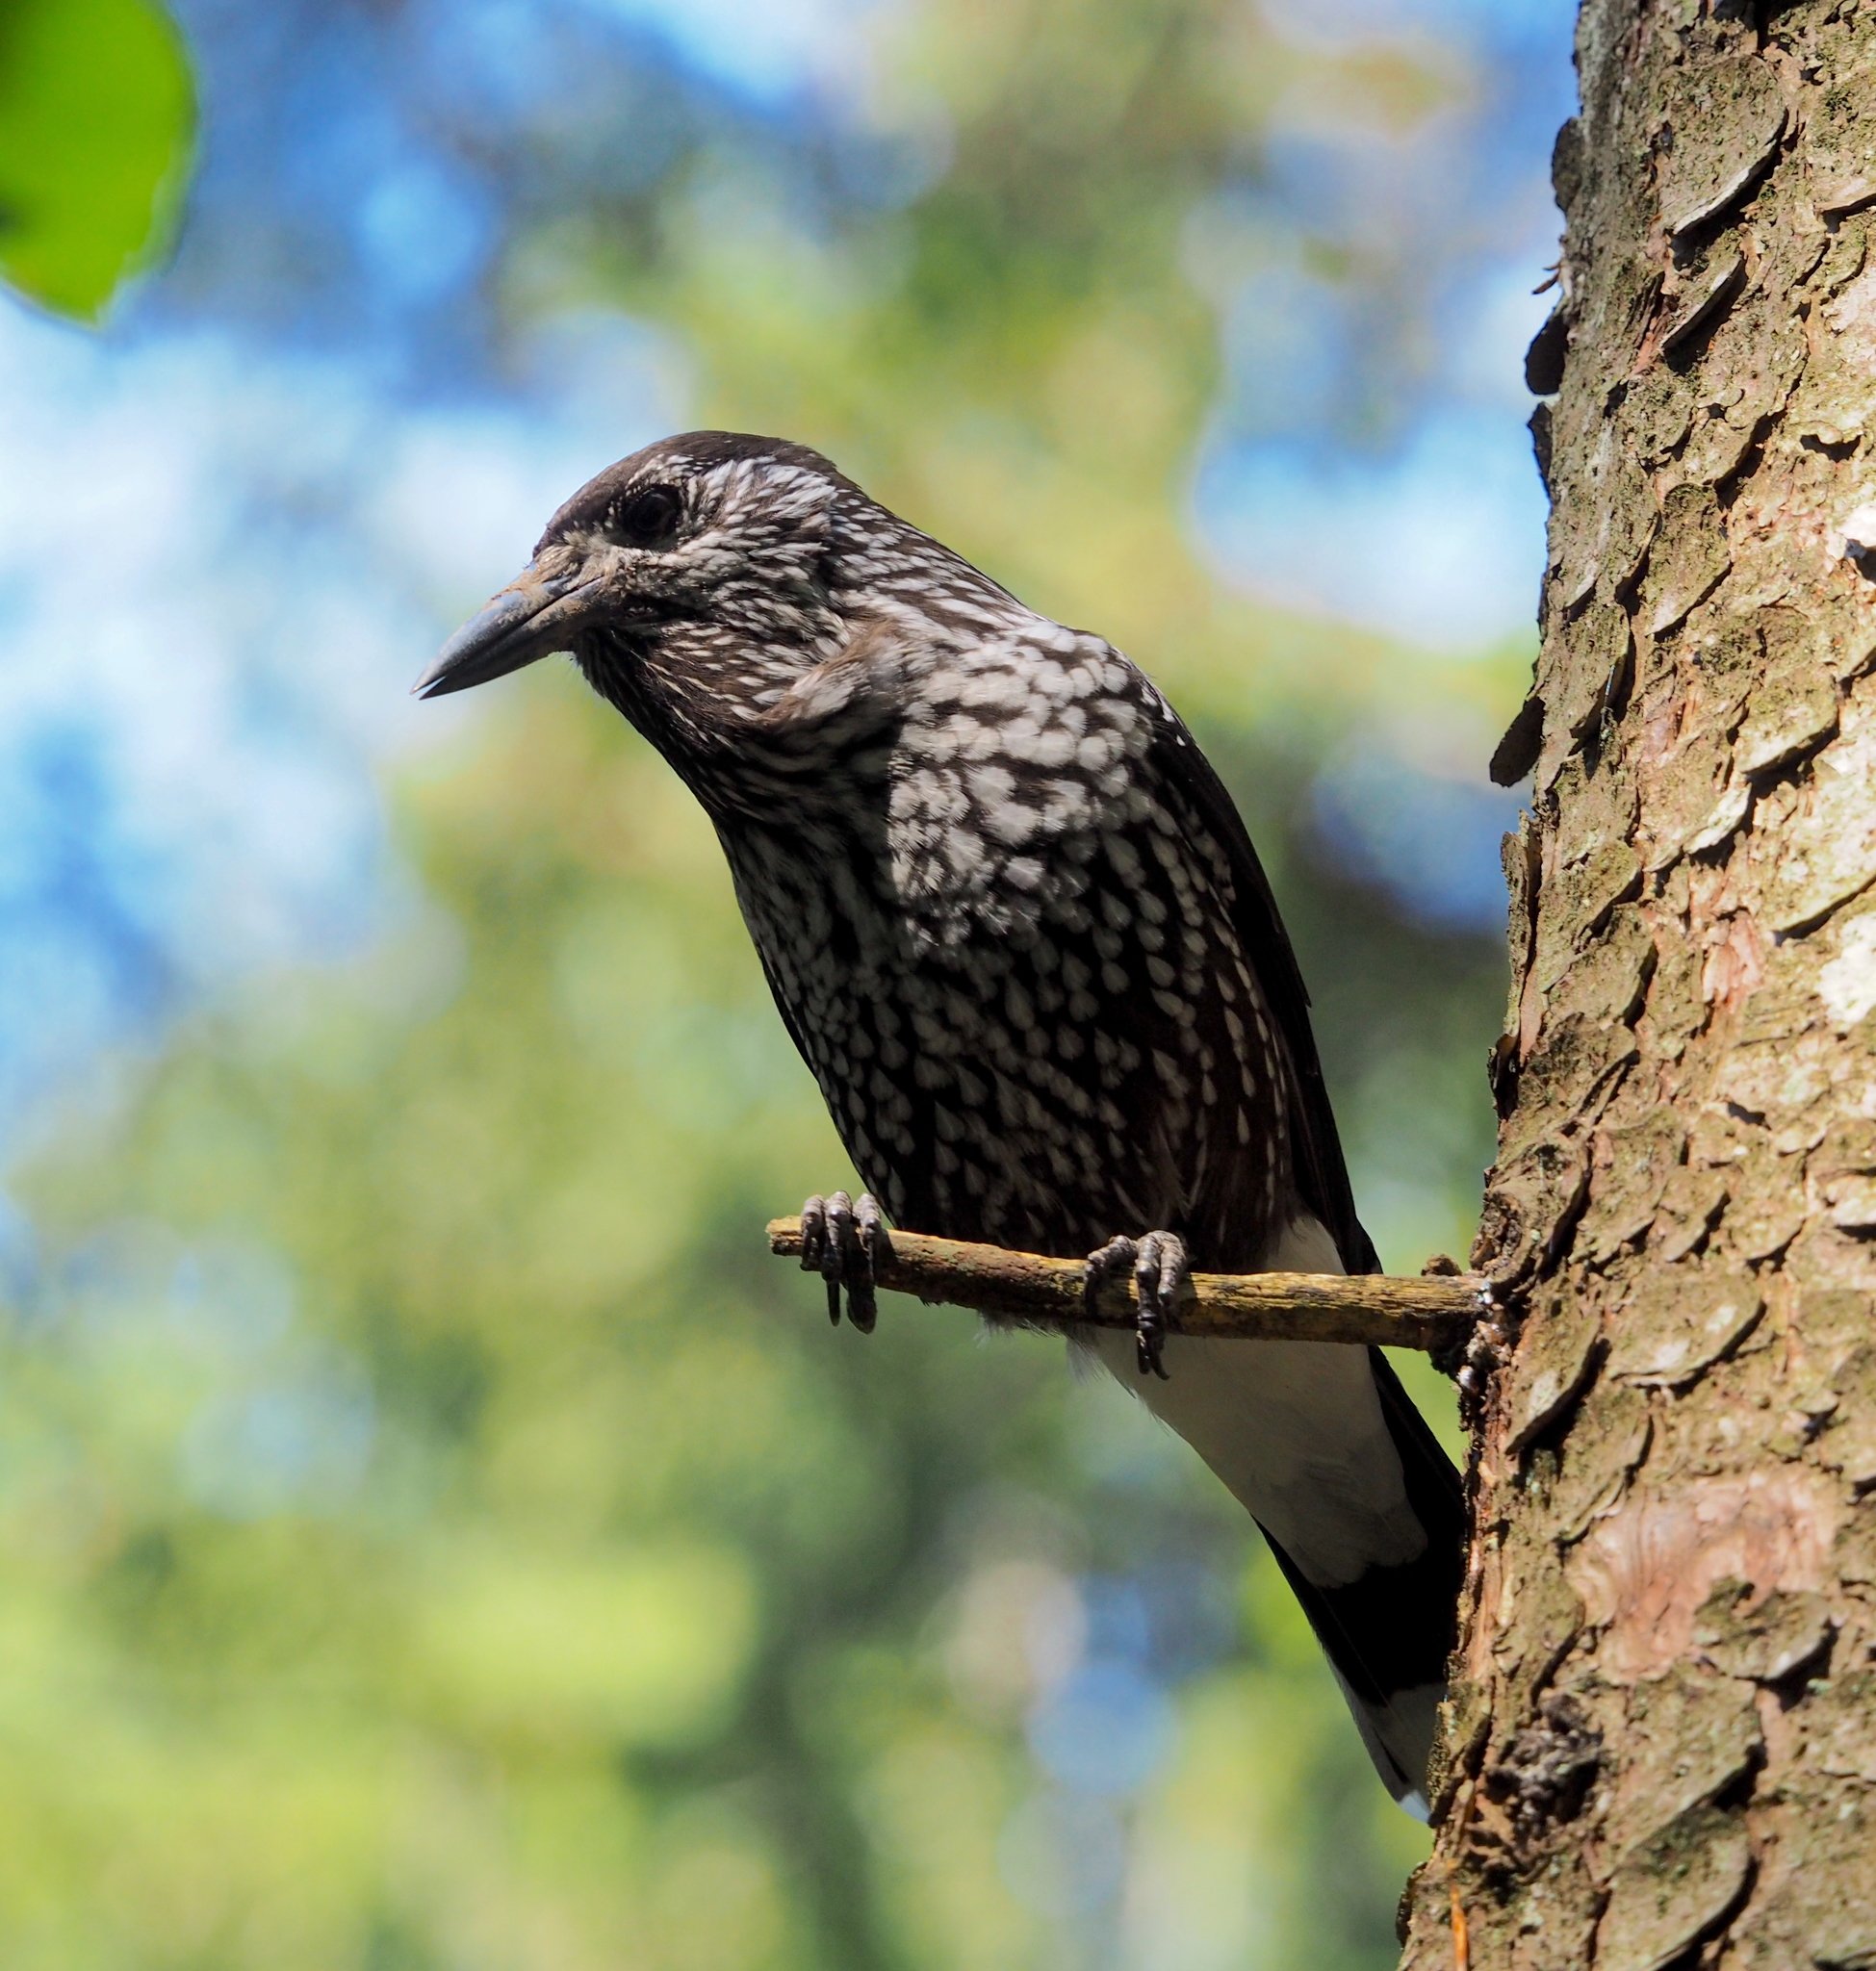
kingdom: Animalia
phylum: Chordata
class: Aves
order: Passeriformes
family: Corvidae
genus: Nucifraga
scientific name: Nucifraga caryocatactes
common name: Spotted nutcracker
